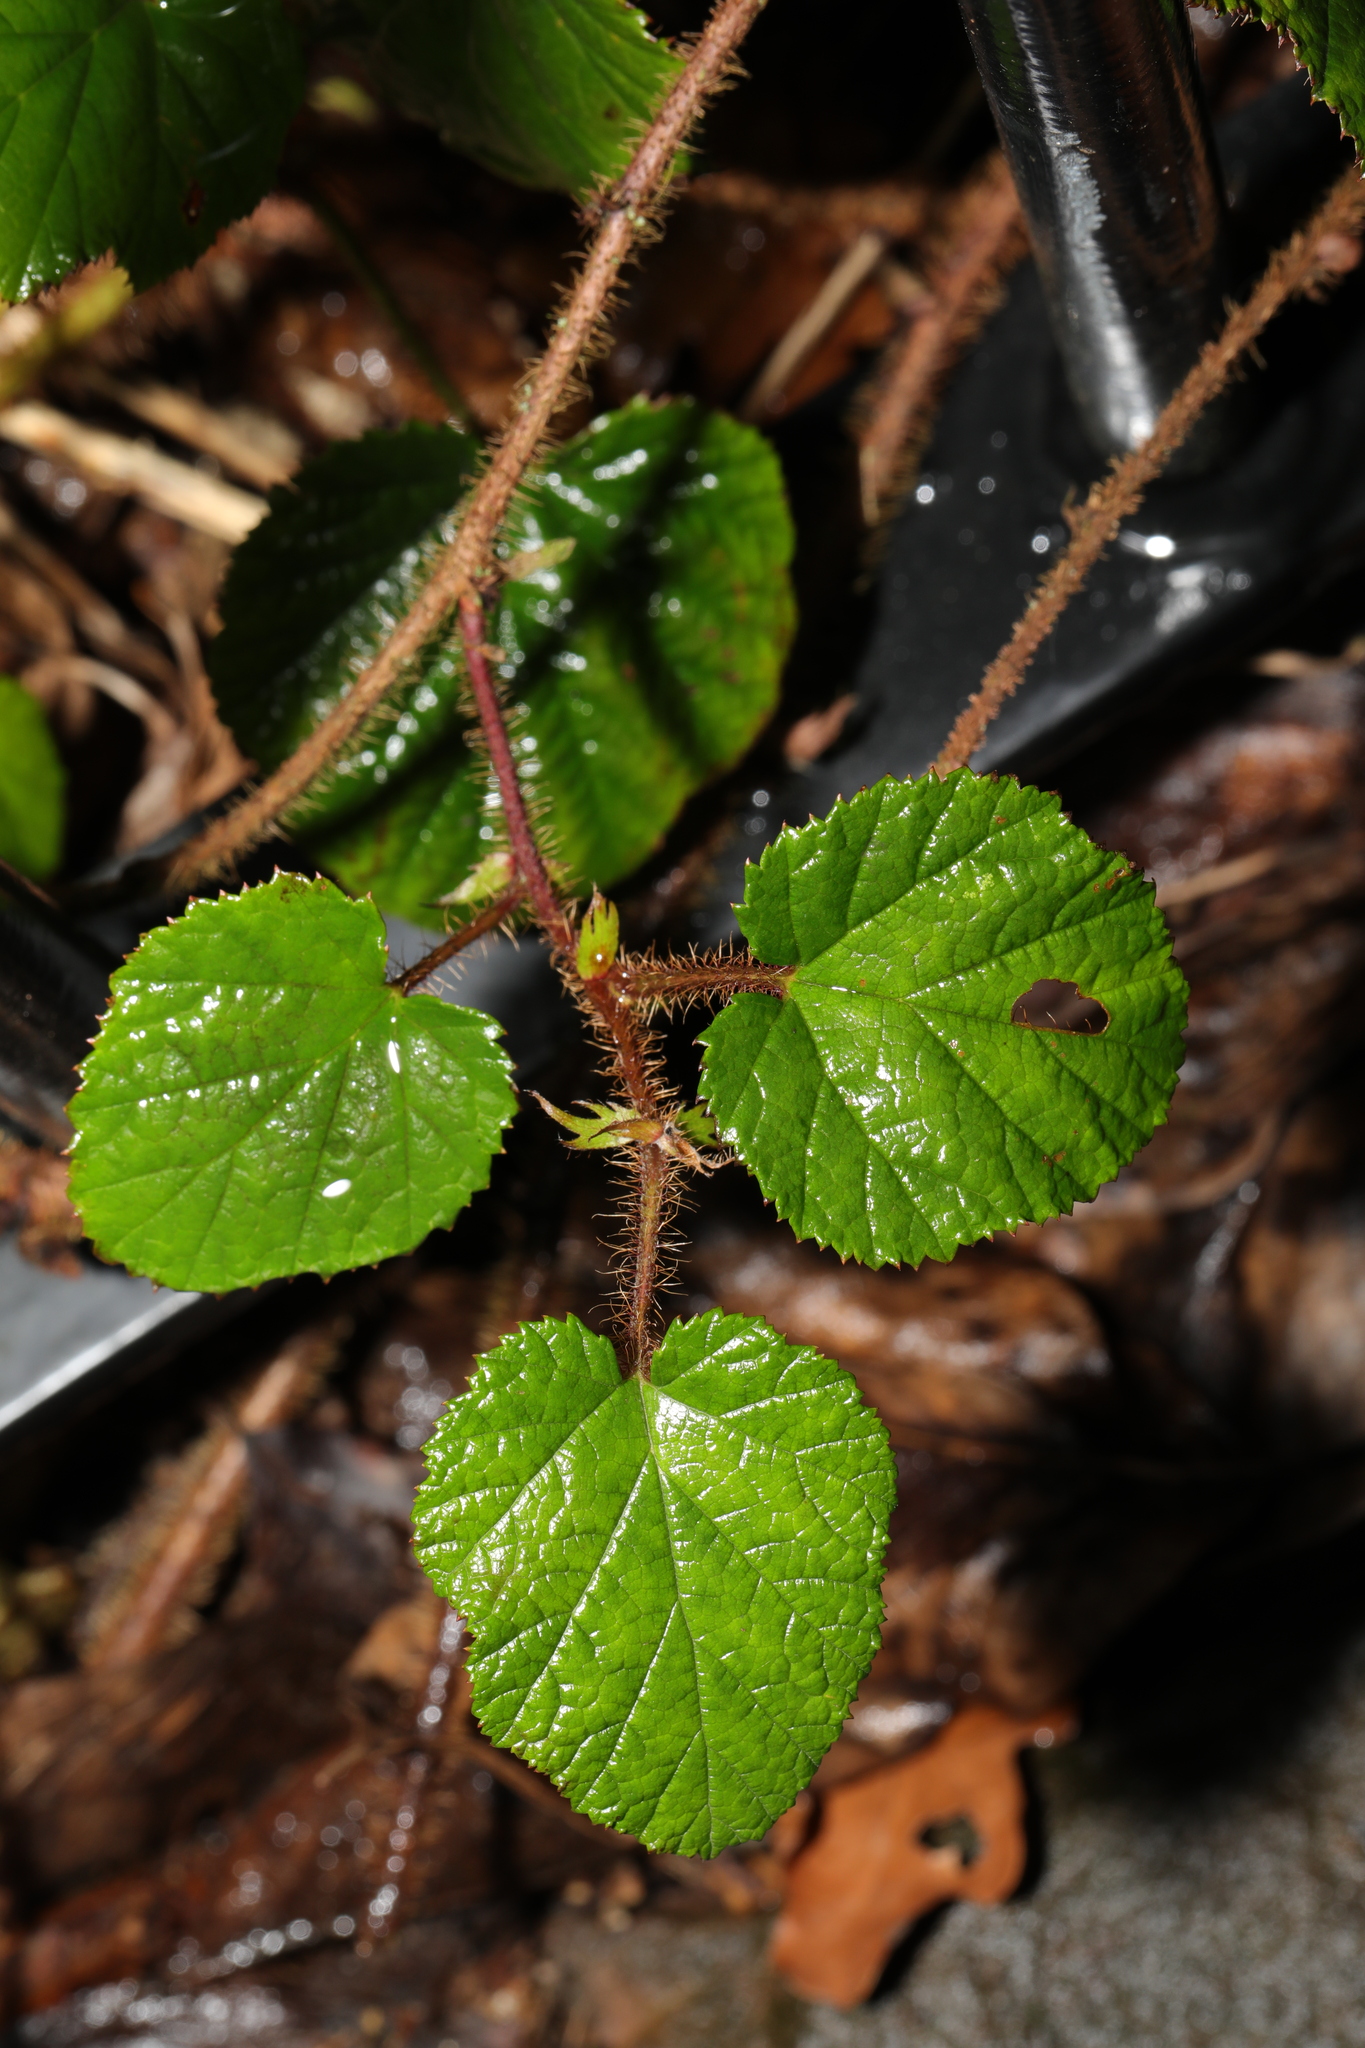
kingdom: Plantae
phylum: Tracheophyta
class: Magnoliopsida
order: Rosales
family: Rosaceae
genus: Rubus
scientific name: Rubus tricolor
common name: Chinese bramble
